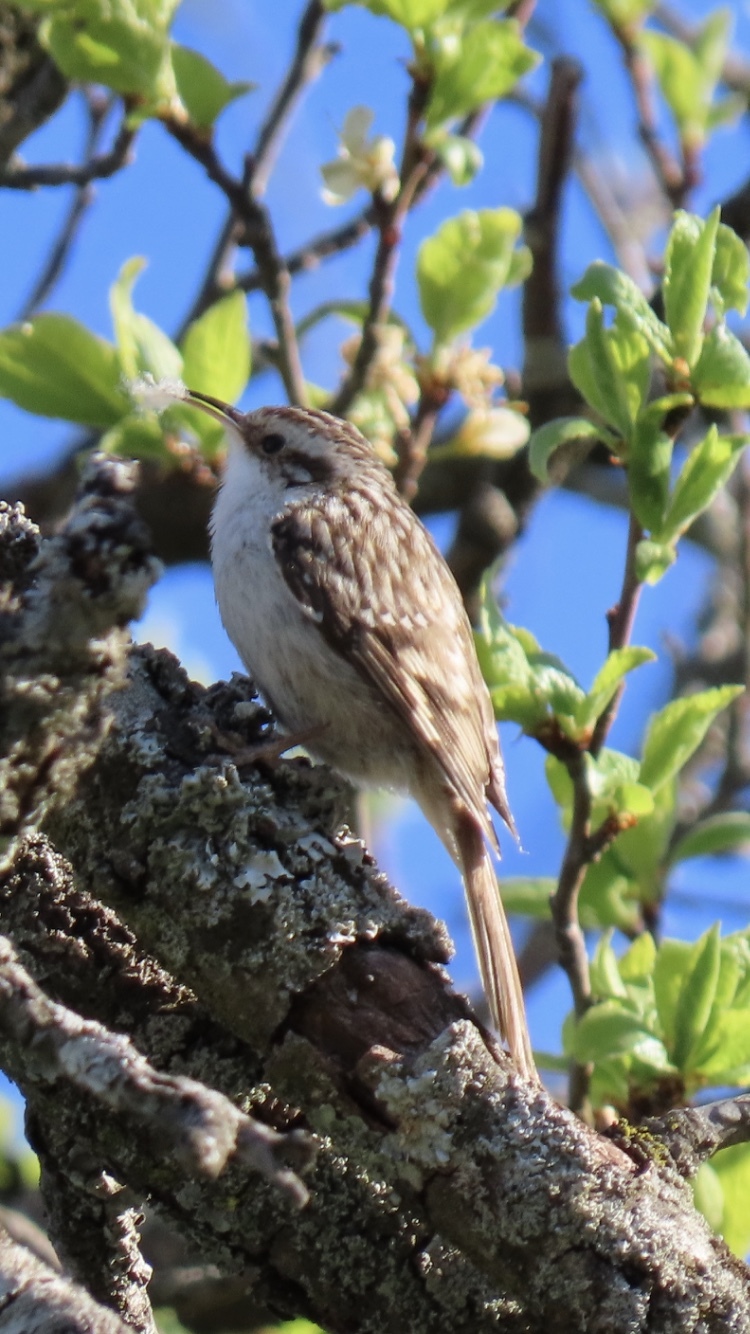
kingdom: Animalia
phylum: Chordata
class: Aves
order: Passeriformes
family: Certhiidae
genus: Certhia
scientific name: Certhia brachydactyla
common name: Short-toed treecreeper
